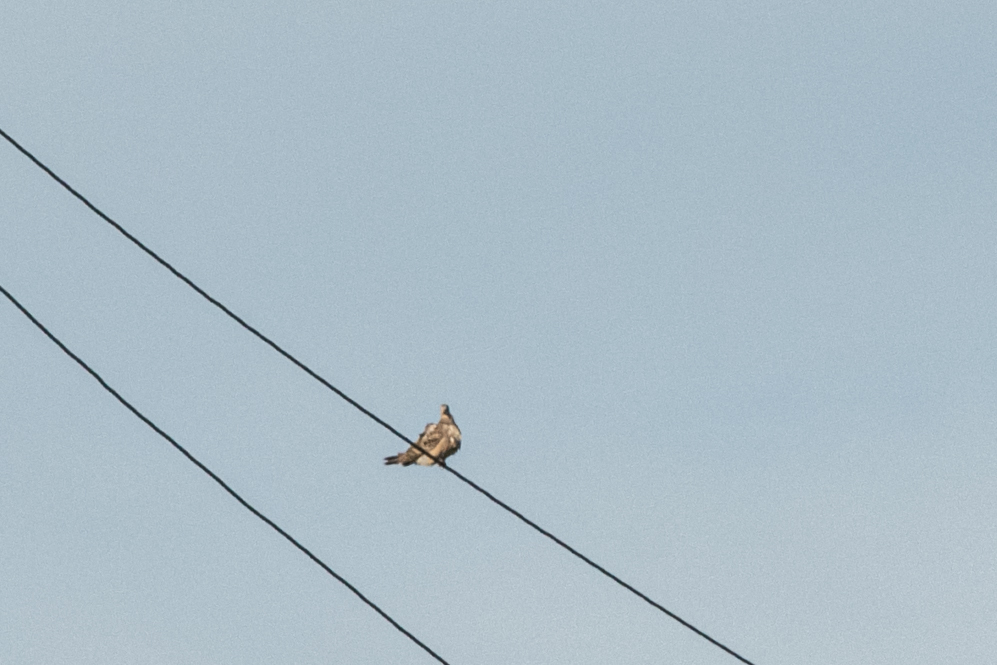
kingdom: Animalia
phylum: Chordata
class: Aves
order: Columbiformes
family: Columbidae
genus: Streptopelia
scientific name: Streptopelia orientalis
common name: Oriental turtle dove
